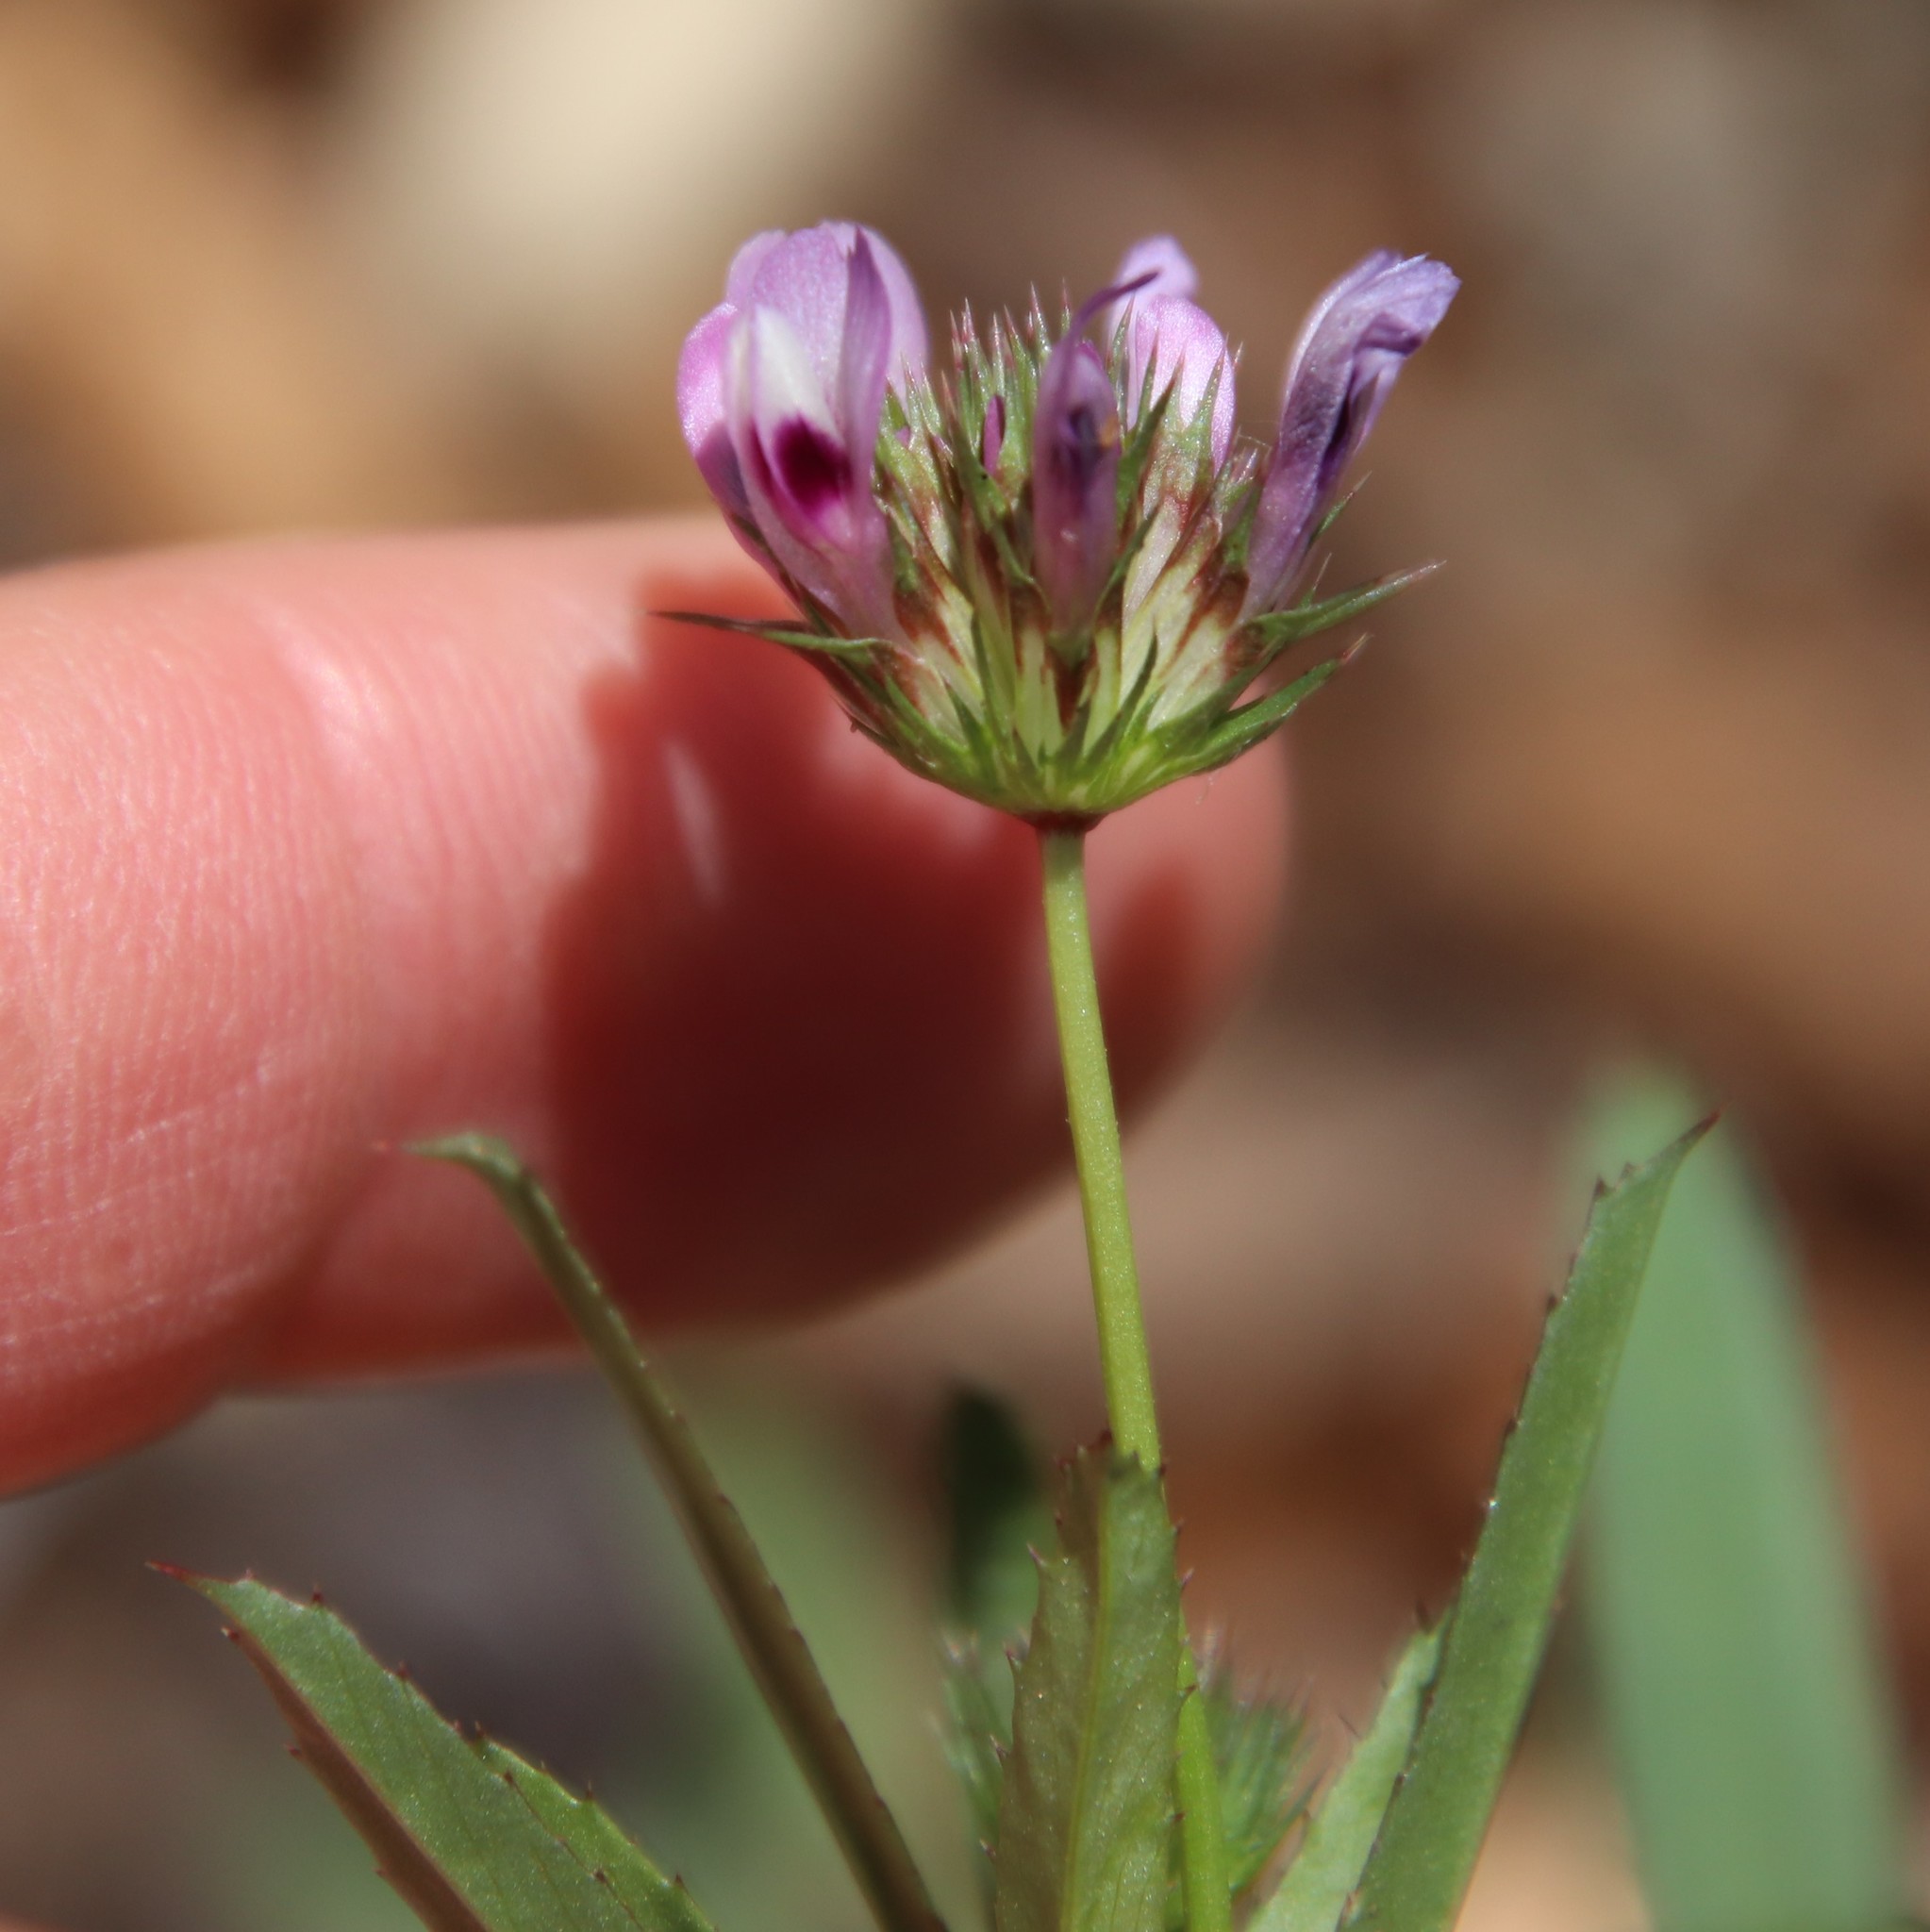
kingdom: Plantae
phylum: Tracheophyta
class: Magnoliopsida
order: Fabales
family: Fabaceae
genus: Trifolium
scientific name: Trifolium willdenovii
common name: Tomcat clover
